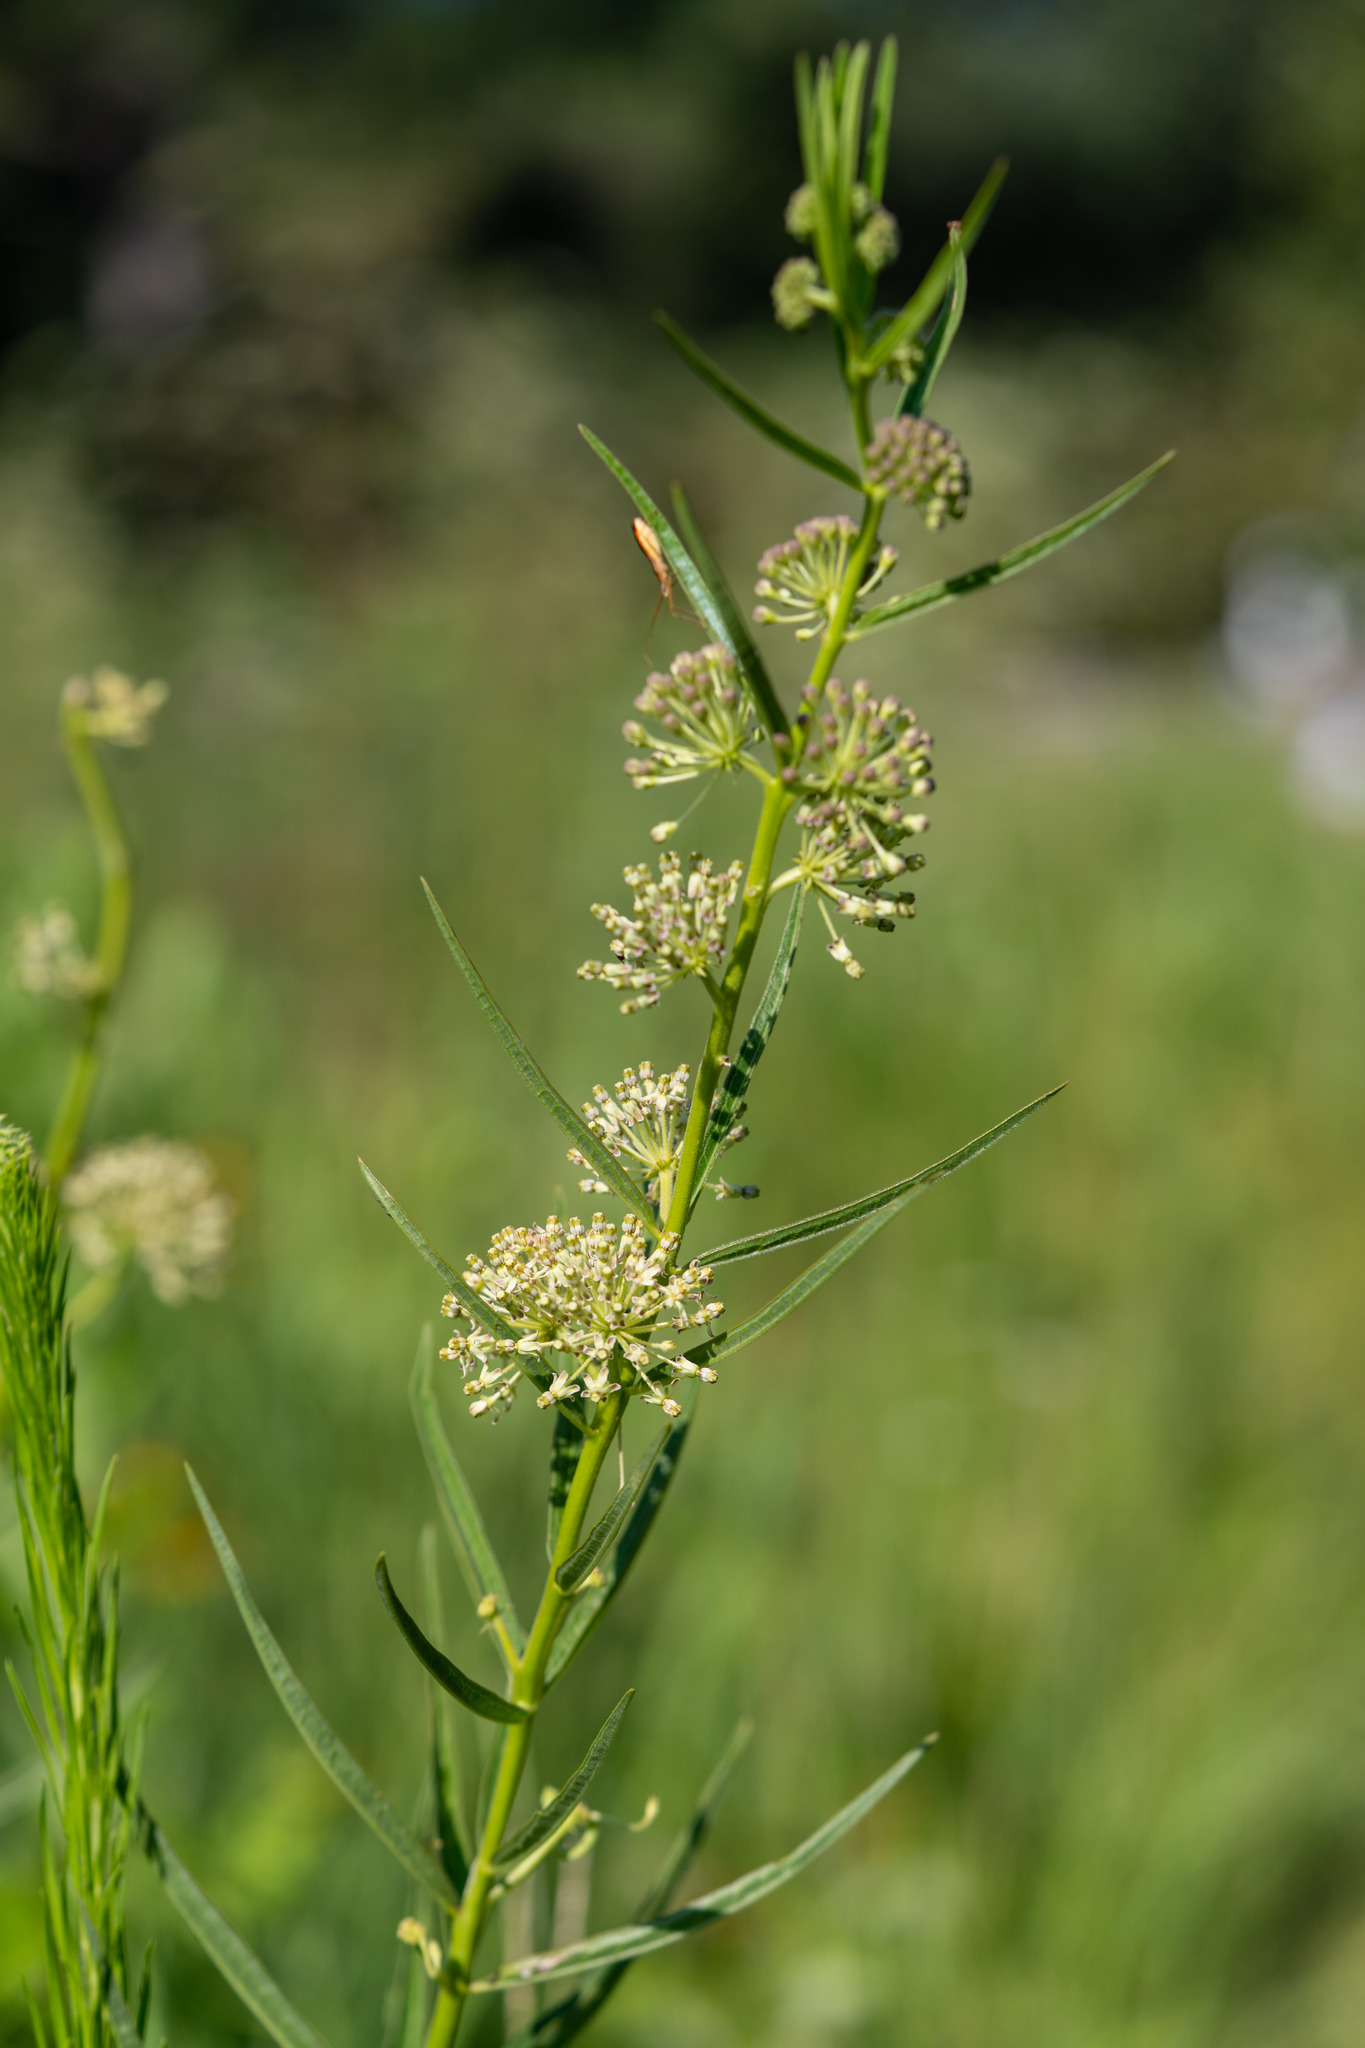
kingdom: Plantae
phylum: Tracheophyta
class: Magnoliopsida
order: Gentianales
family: Apocynaceae
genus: Asclepias
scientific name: Asclepias hirtella
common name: Prairie milkweed
